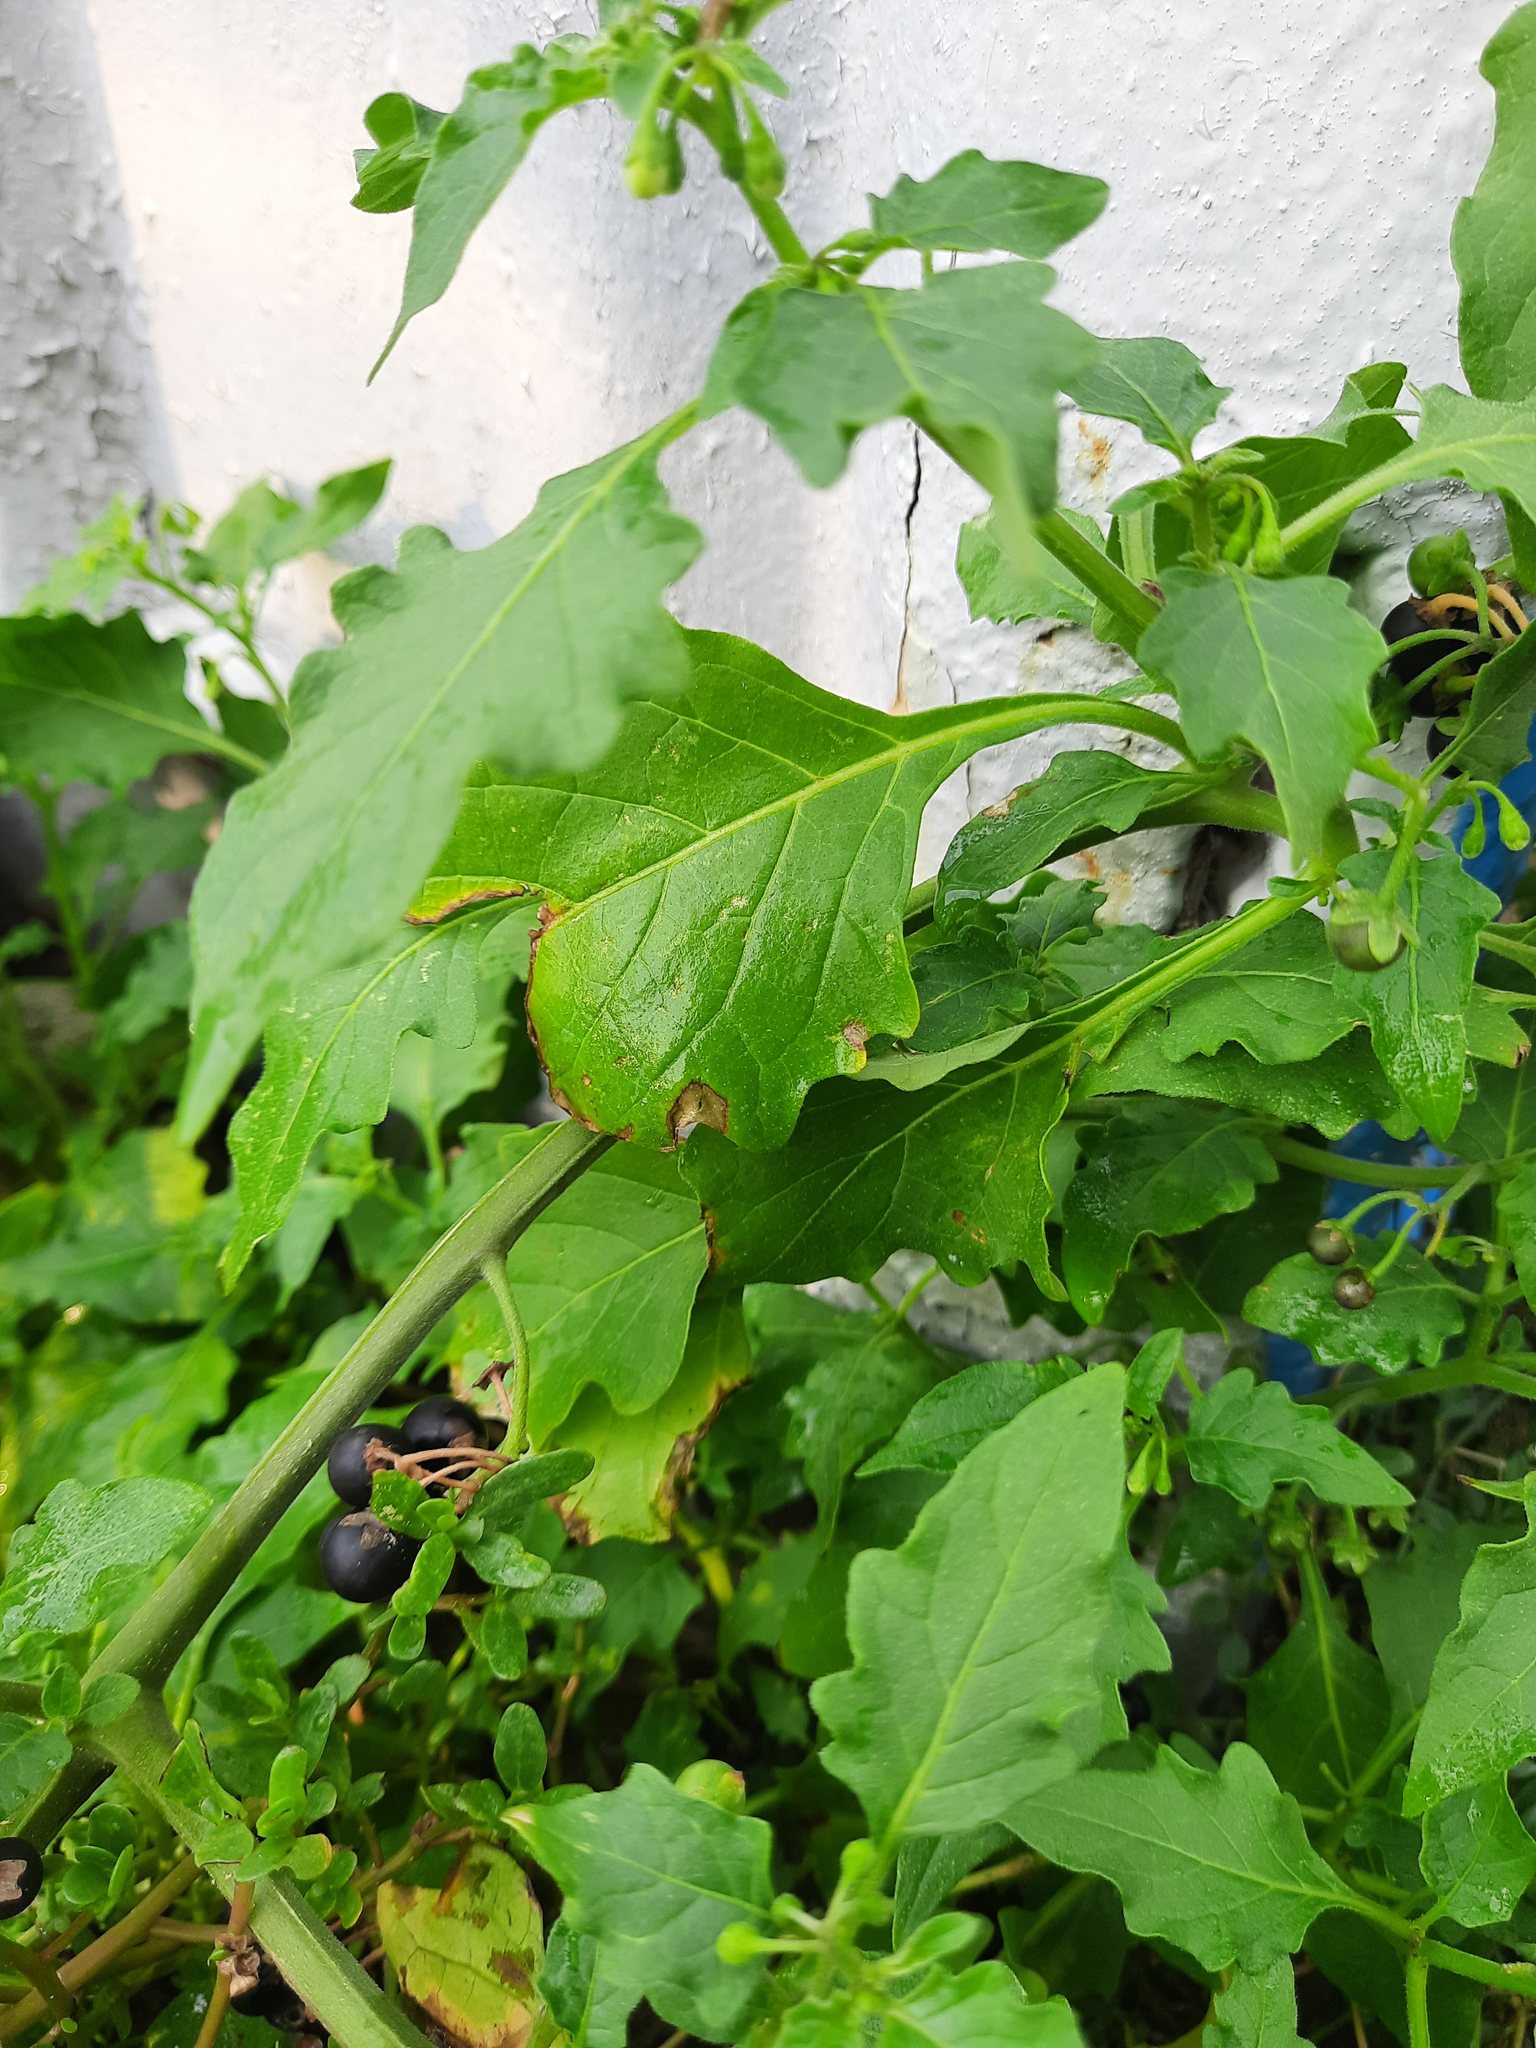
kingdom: Plantae
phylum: Tracheophyta
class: Magnoliopsida
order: Solanales
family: Solanaceae
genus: Solanum
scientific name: Solanum nigrum
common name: Black nightshade
